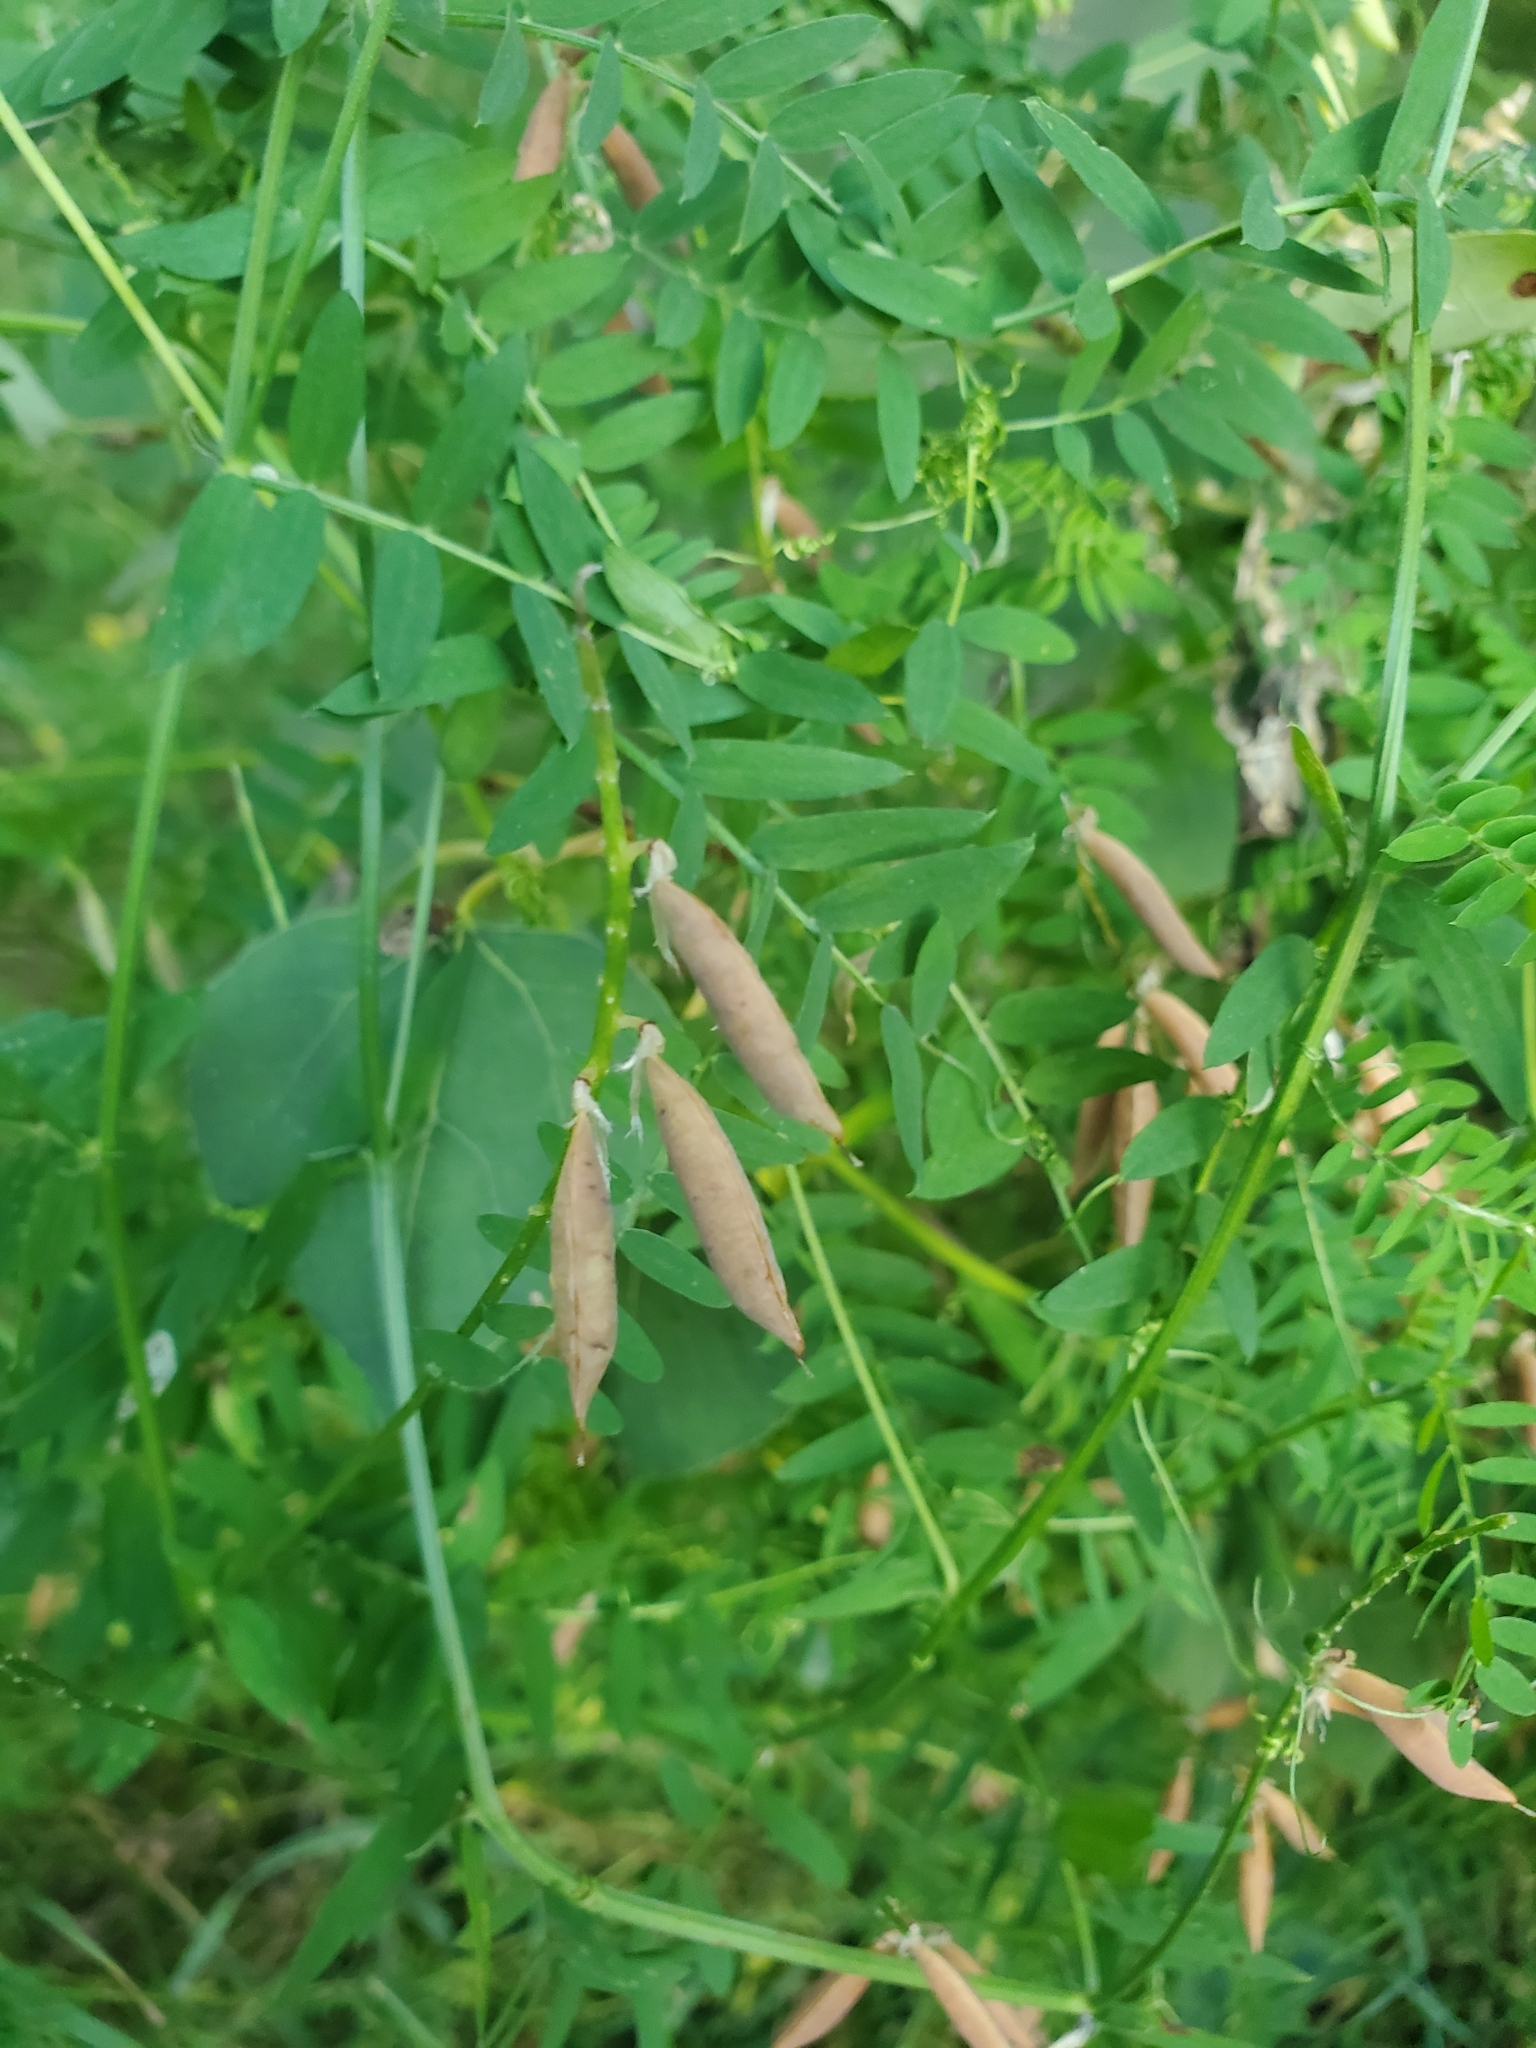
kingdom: Plantae
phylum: Tracheophyta
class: Magnoliopsida
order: Fabales
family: Fabaceae
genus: Vicia
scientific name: Vicia cracca
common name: Bird vetch
